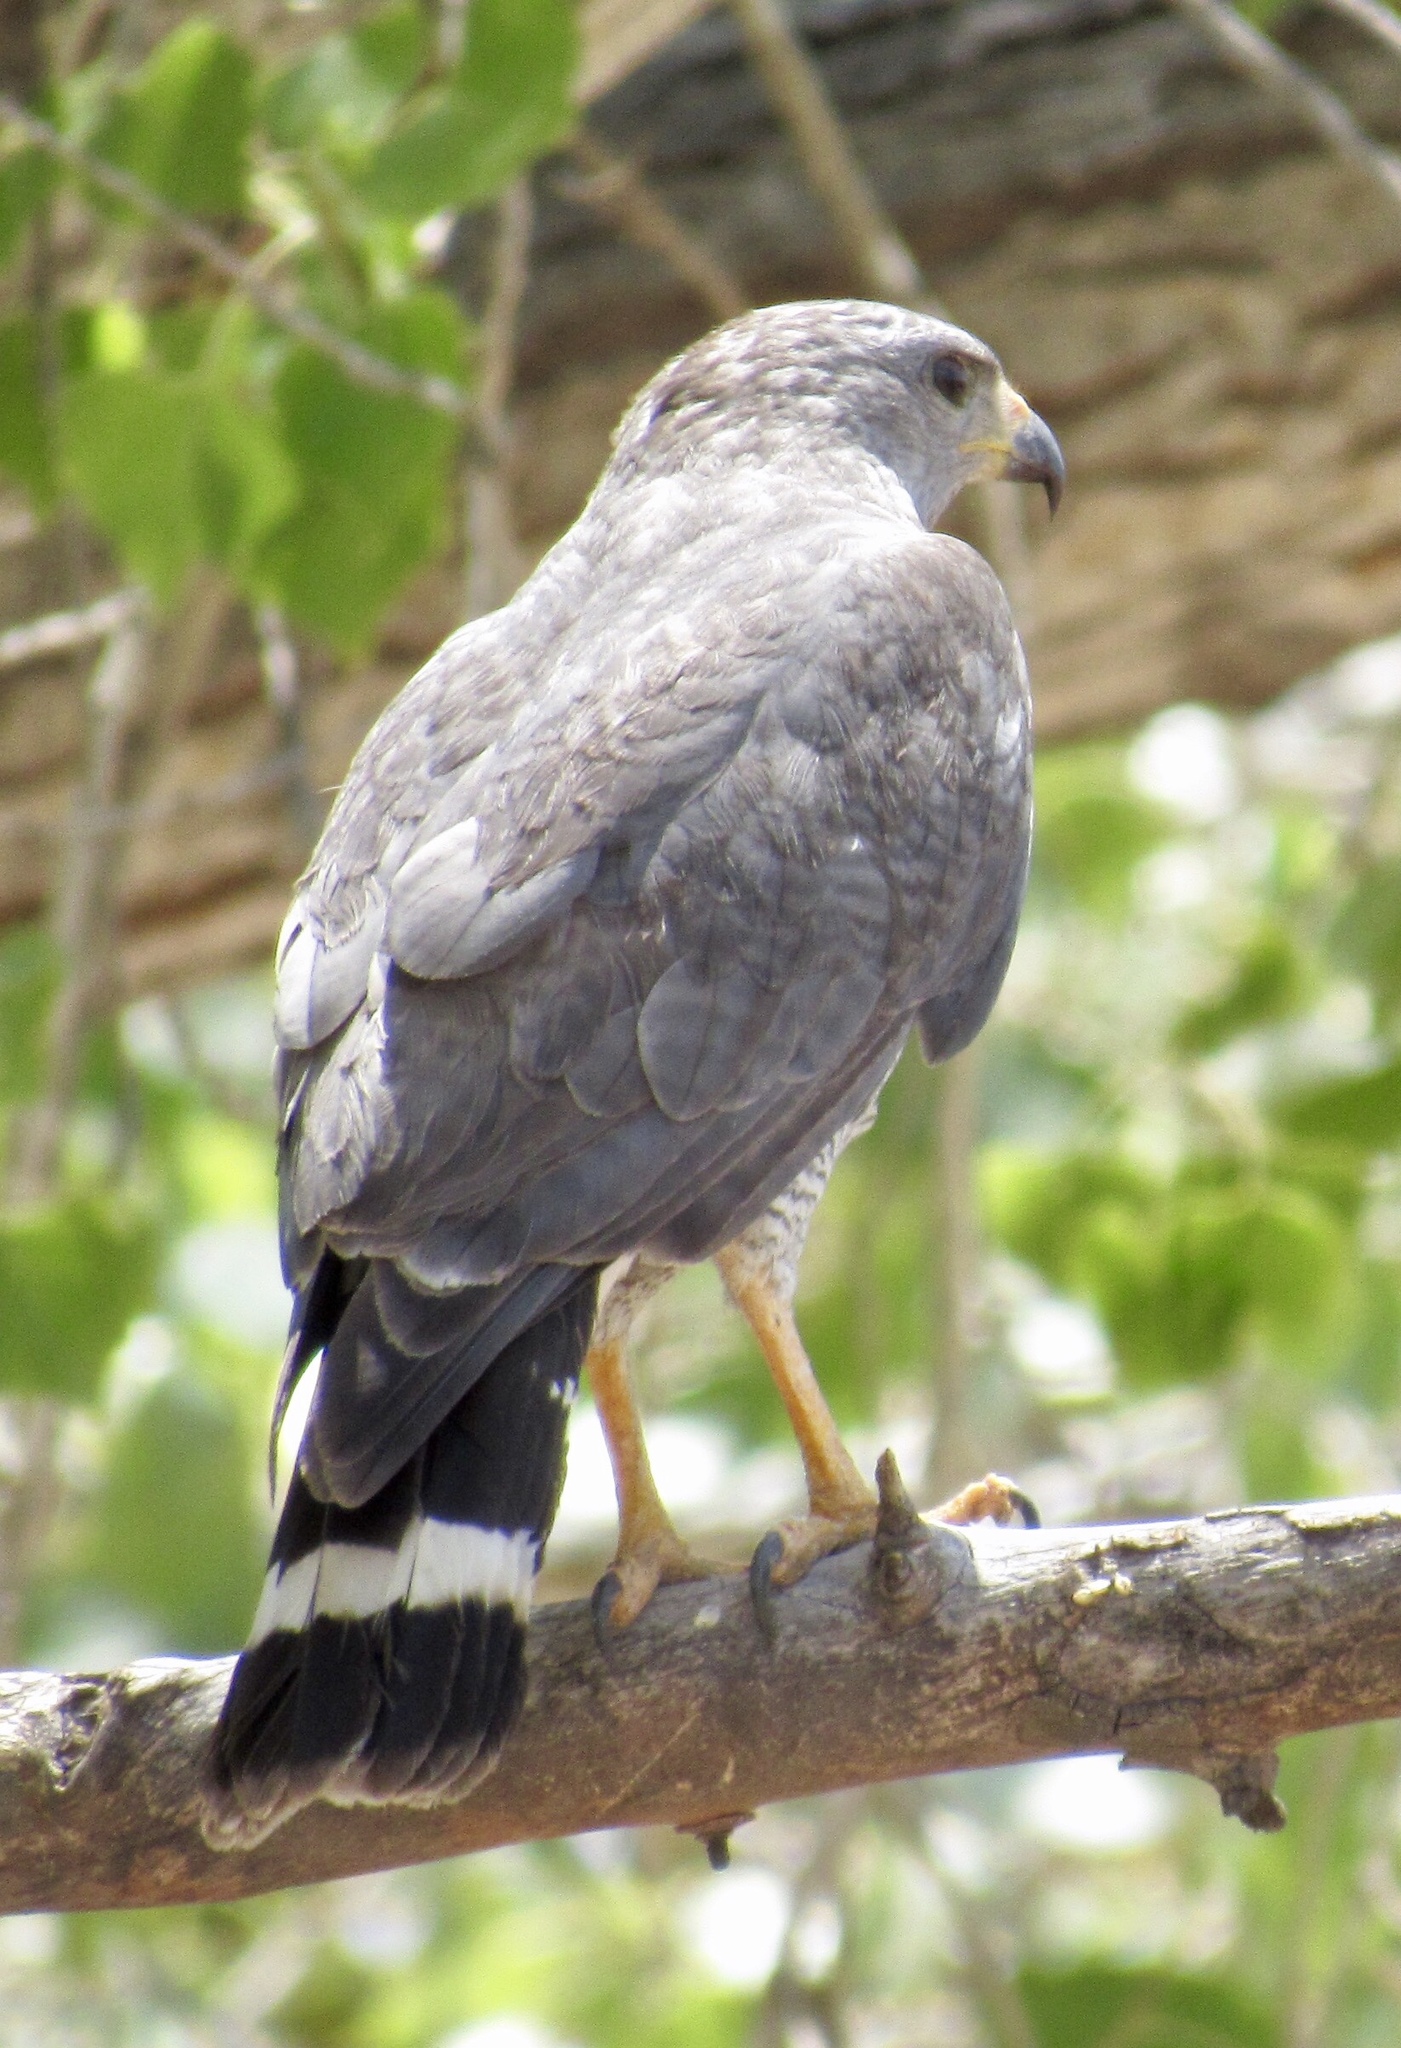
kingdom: Animalia
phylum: Chordata
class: Aves
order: Accipitriformes
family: Accipitridae
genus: Buteo
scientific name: Buteo nitidus
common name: Grey-lined hawk
